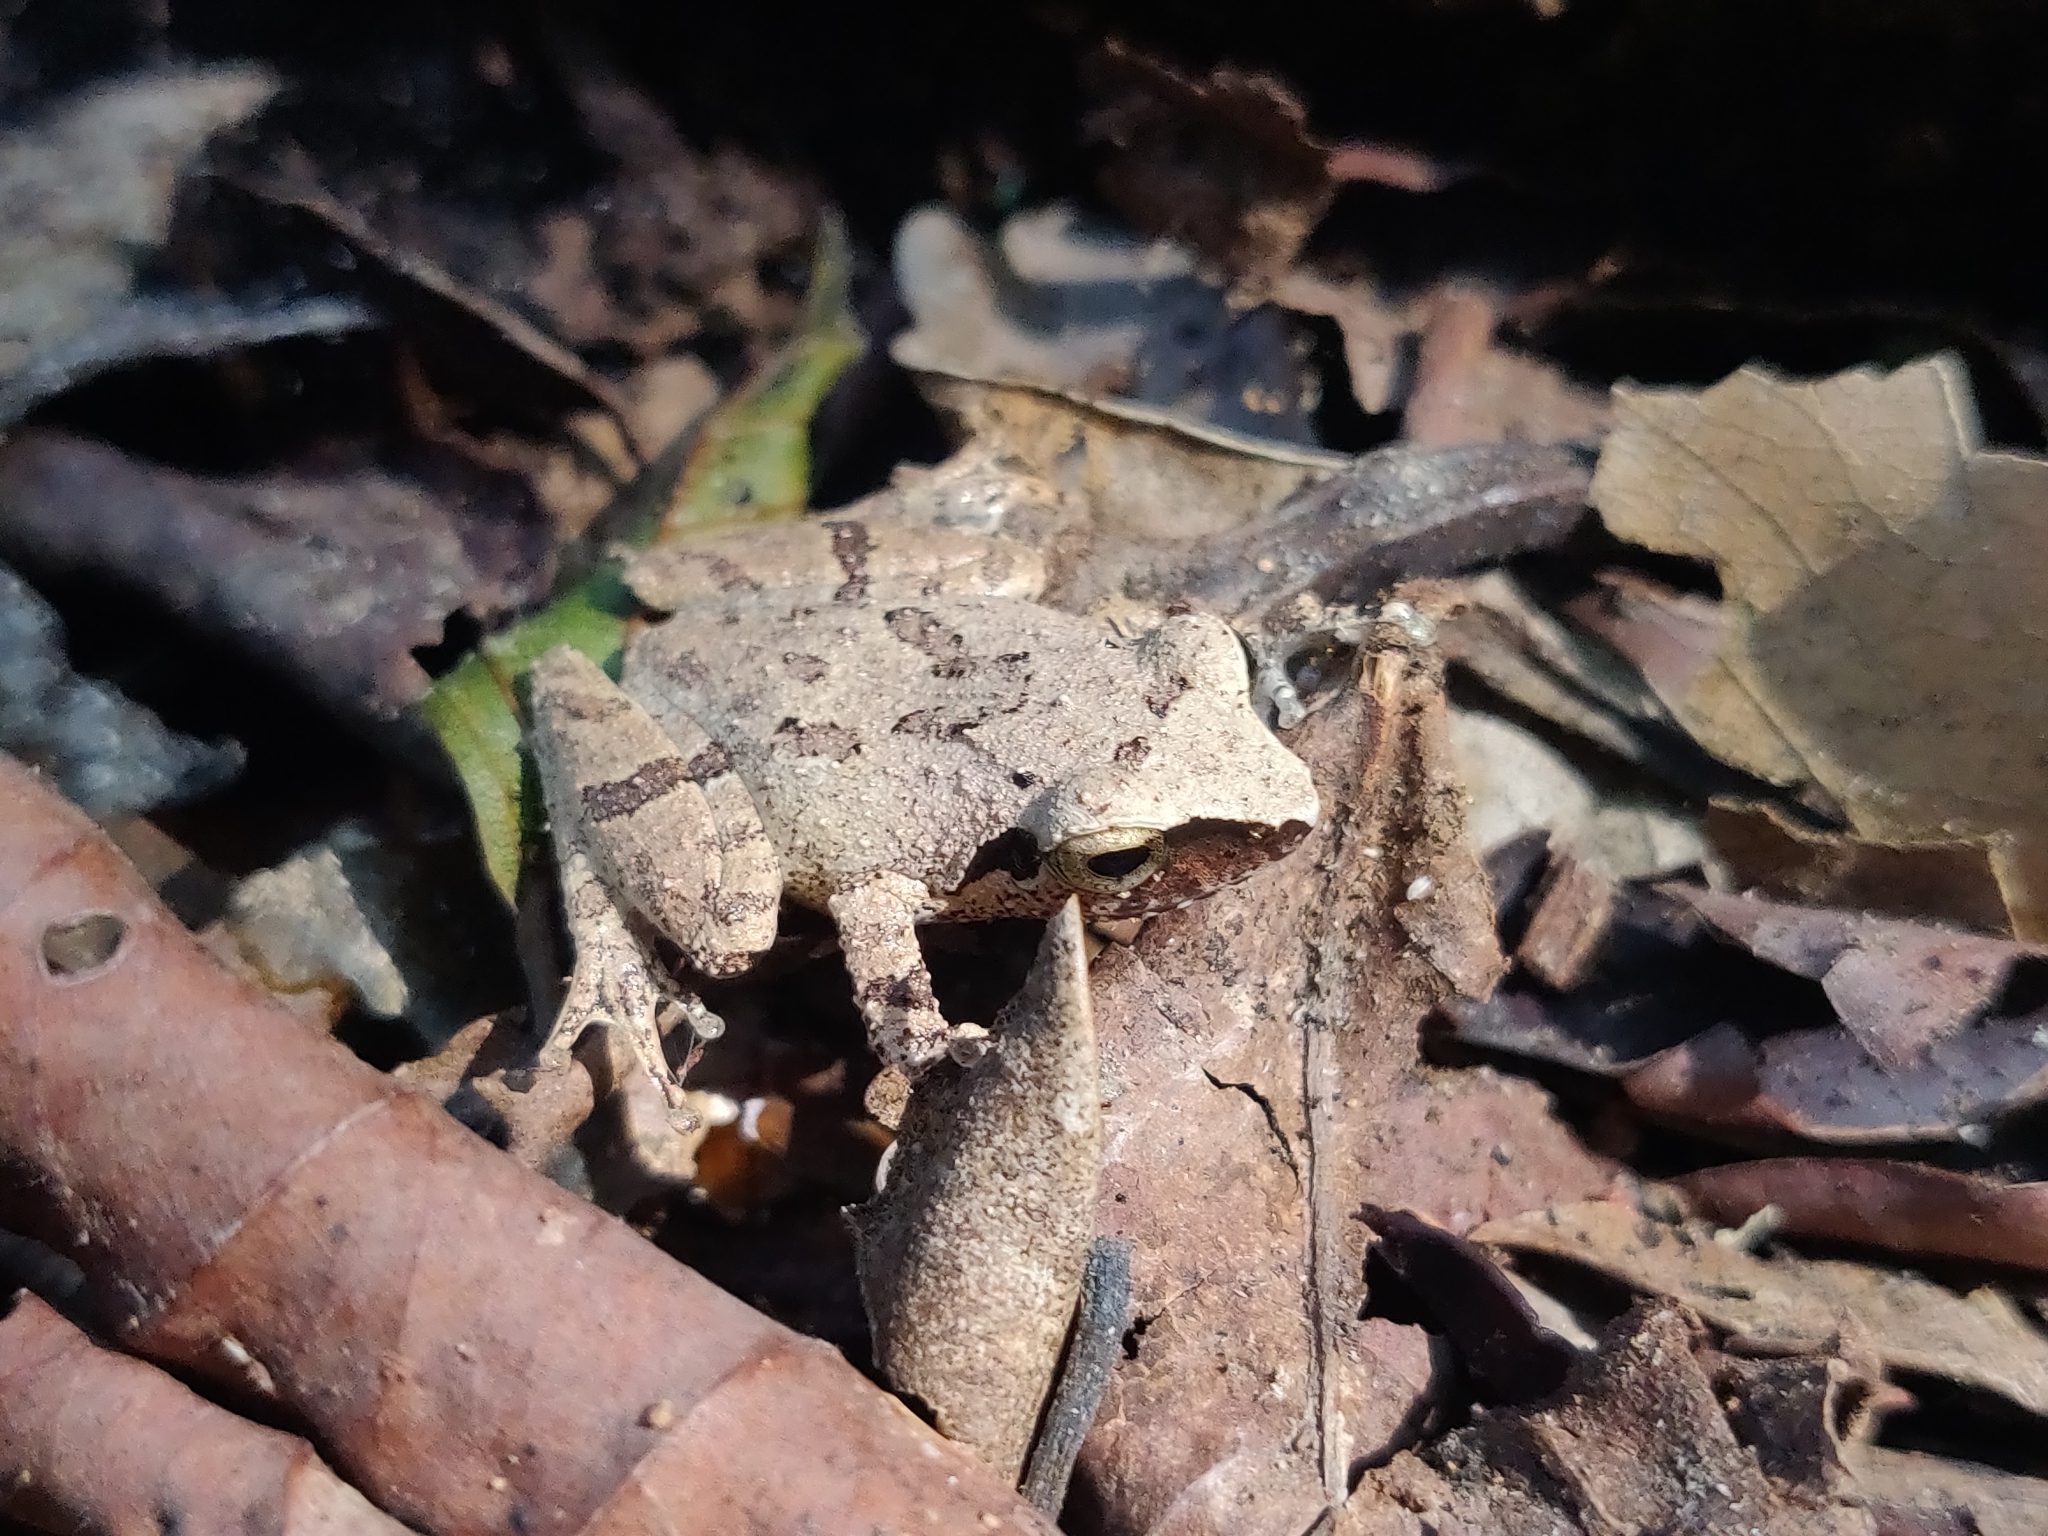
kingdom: Animalia
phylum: Chordata
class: Amphibia
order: Anura
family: Rhacophoridae
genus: Pseudophilautus
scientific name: Pseudophilautus wynaadensis
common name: Dark-eared bush frog
